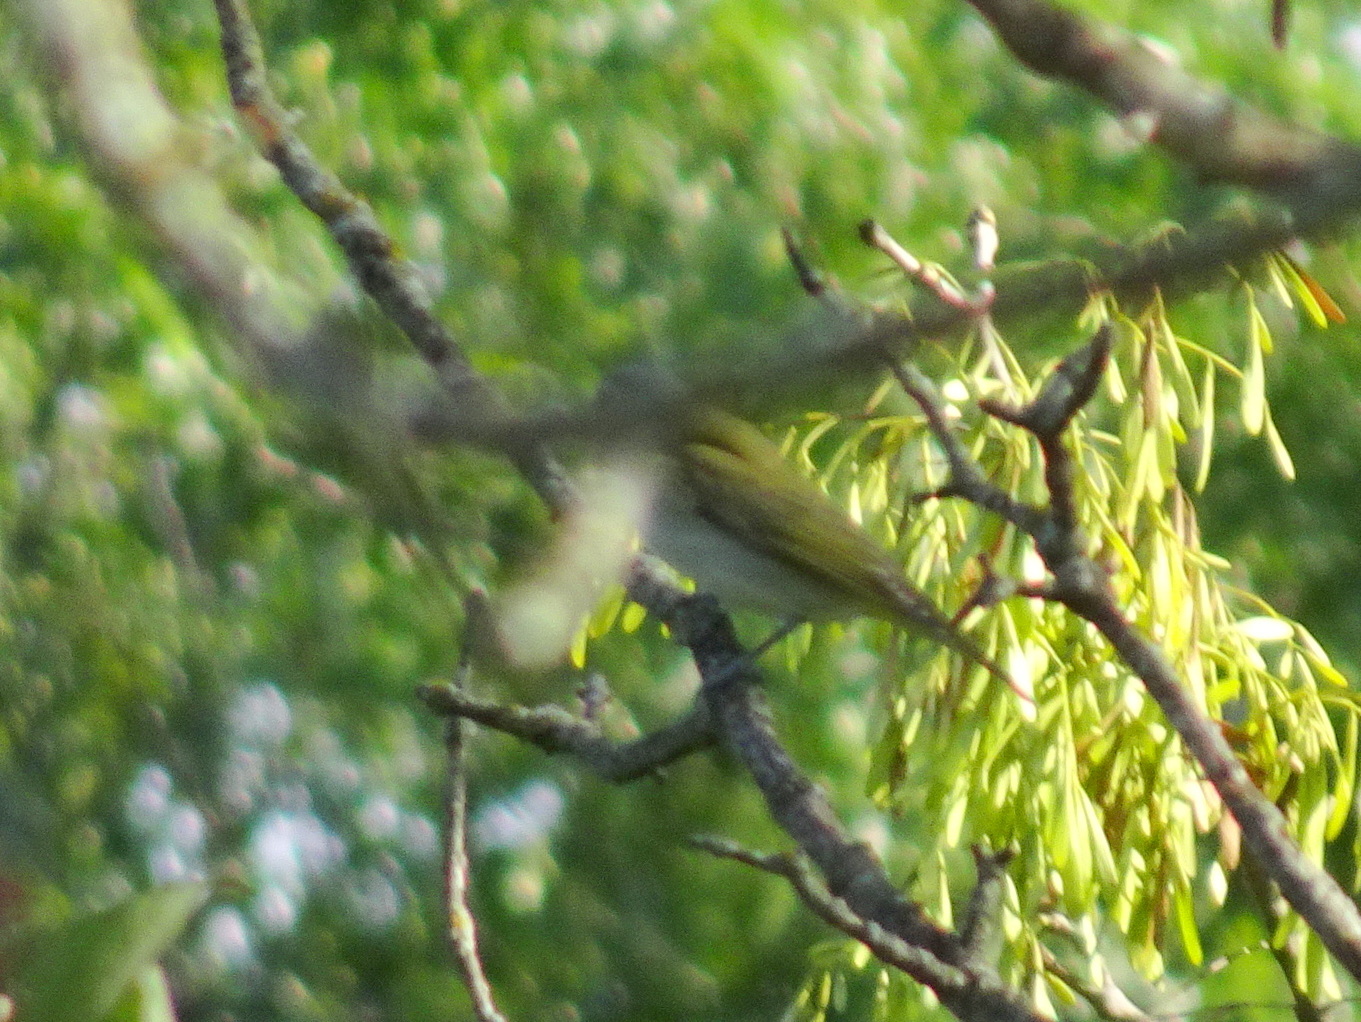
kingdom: Animalia
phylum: Chordata
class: Aves
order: Passeriformes
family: Vireonidae
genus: Vireo
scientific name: Vireo olivaceus
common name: Red-eyed vireo
